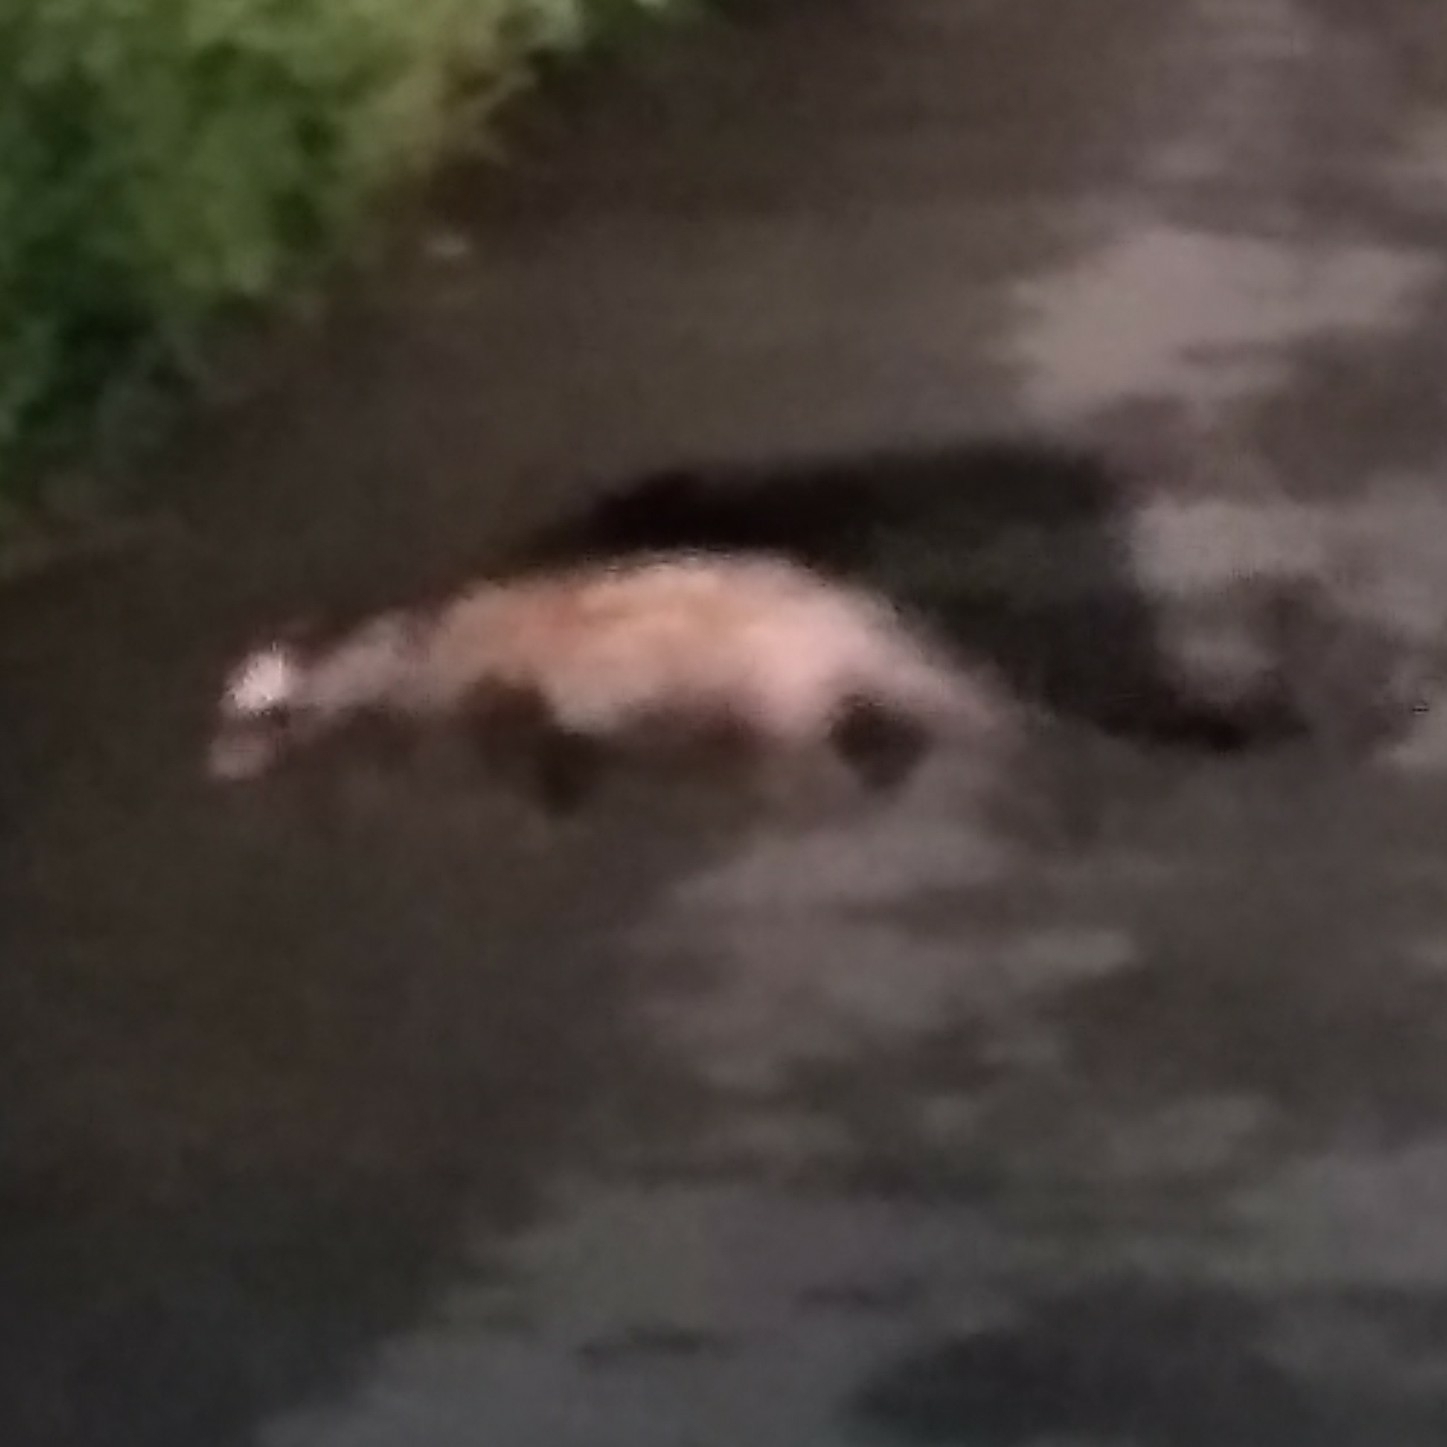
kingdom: Animalia
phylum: Chordata
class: Mammalia
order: Carnivora
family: Viverridae
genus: Paradoxurus
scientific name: Paradoxurus hermaphroditus
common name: Common palm civet
